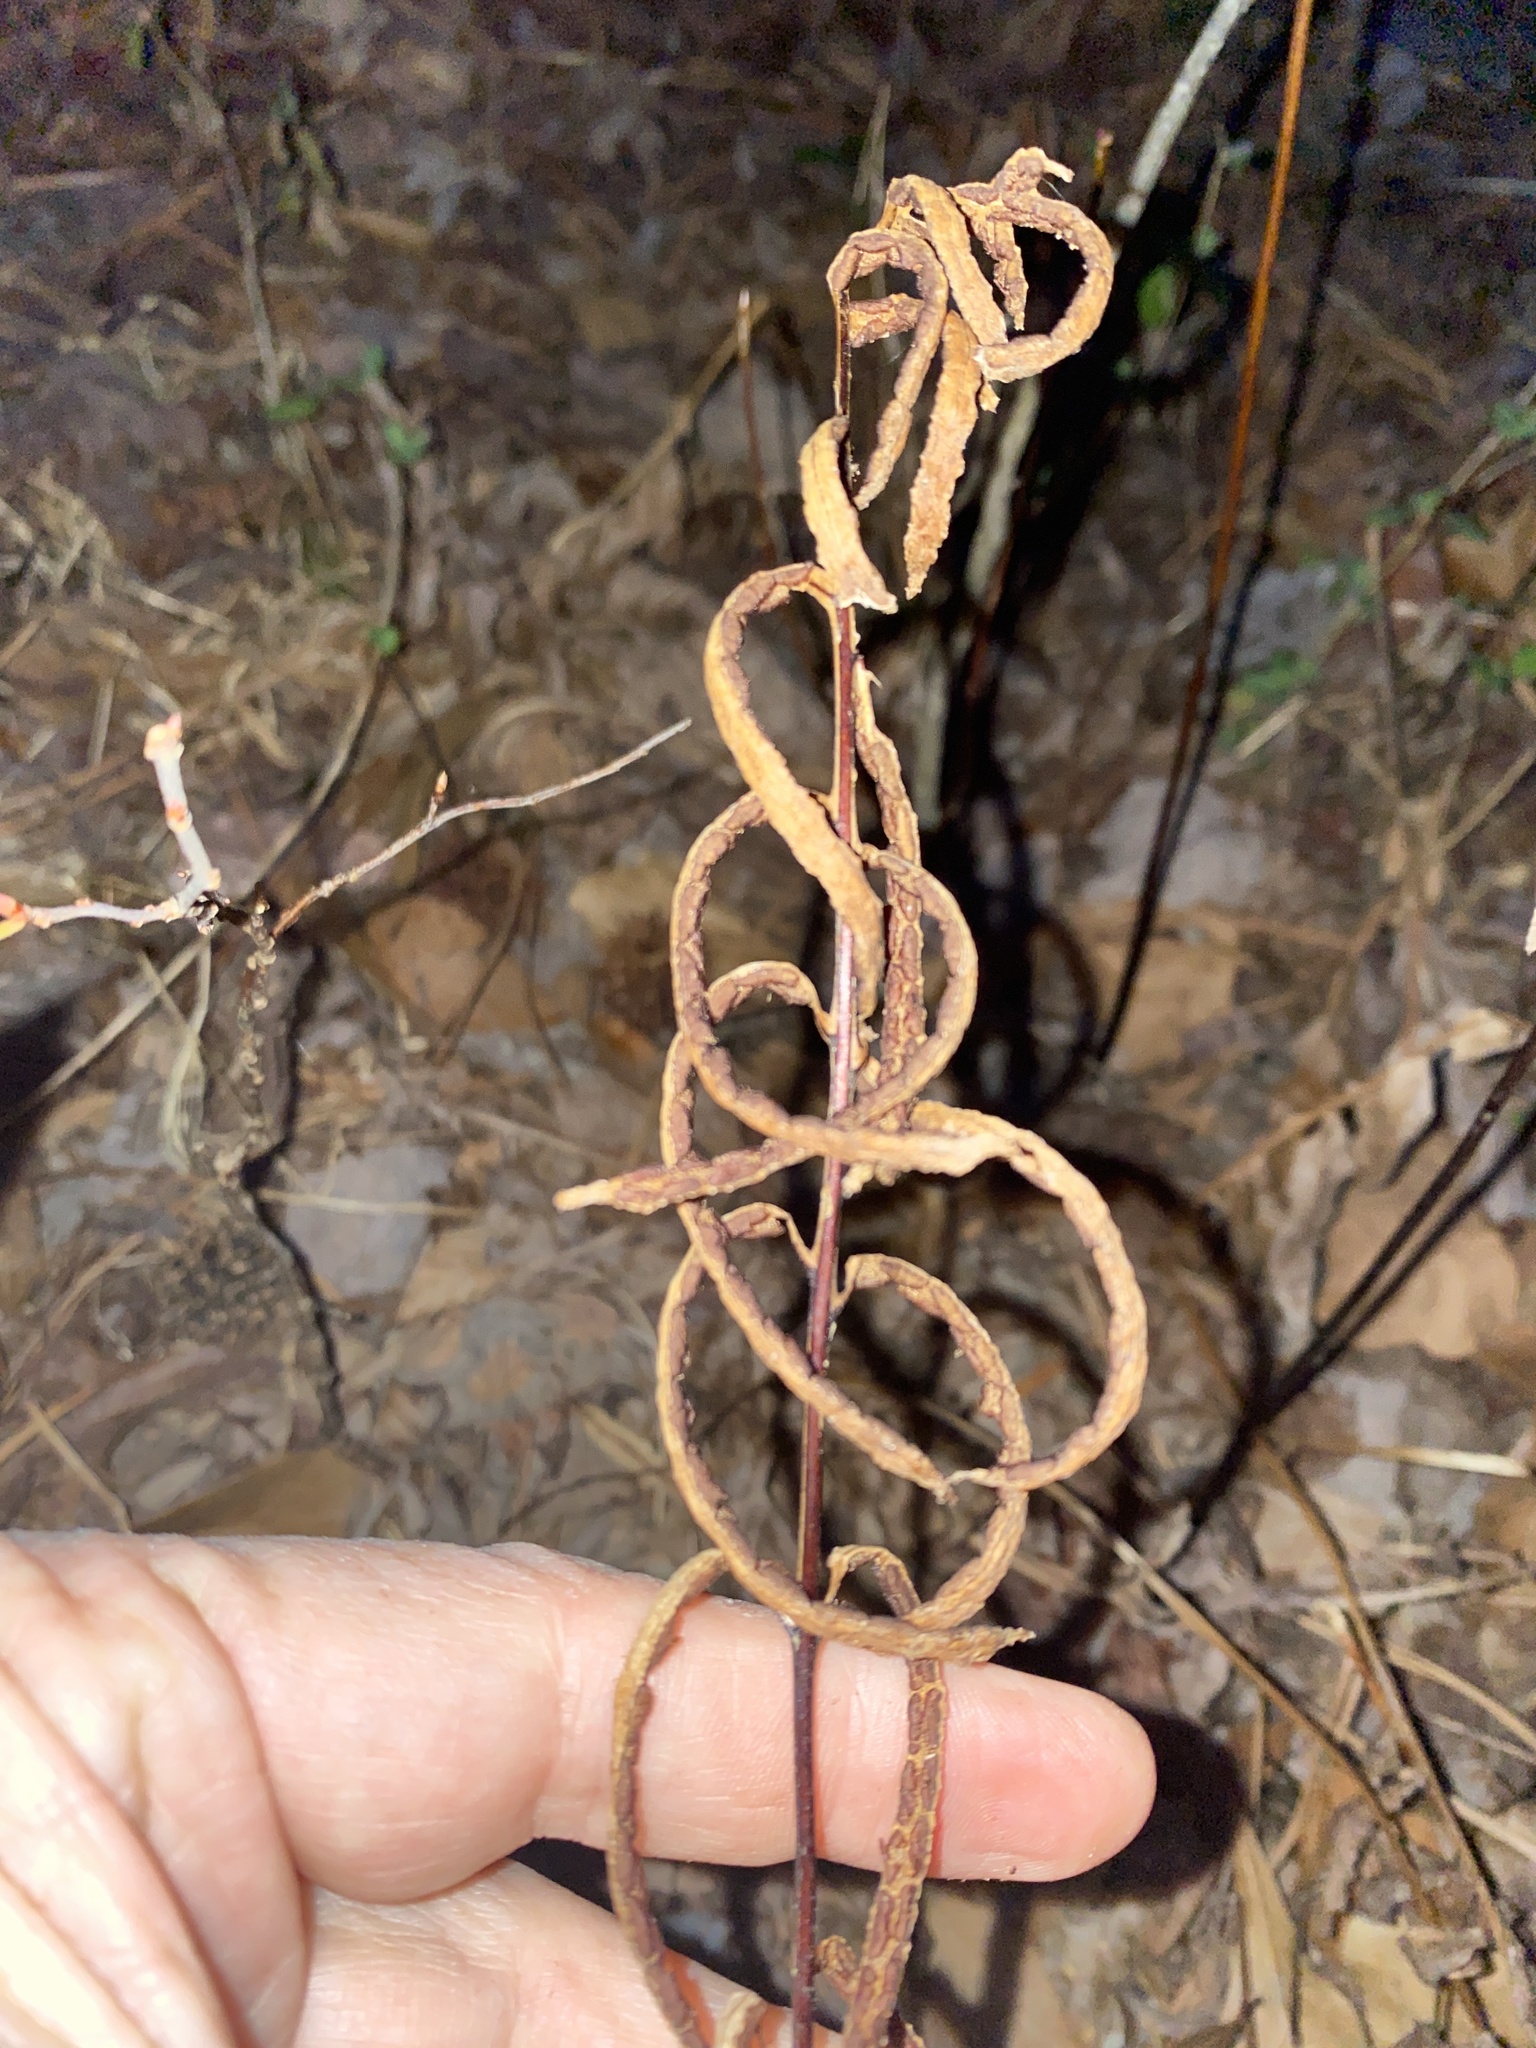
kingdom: Plantae
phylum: Tracheophyta
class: Polypodiopsida
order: Polypodiales
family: Blechnaceae
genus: Lorinseria
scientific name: Lorinseria areolata
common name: Dwarf chain fern
